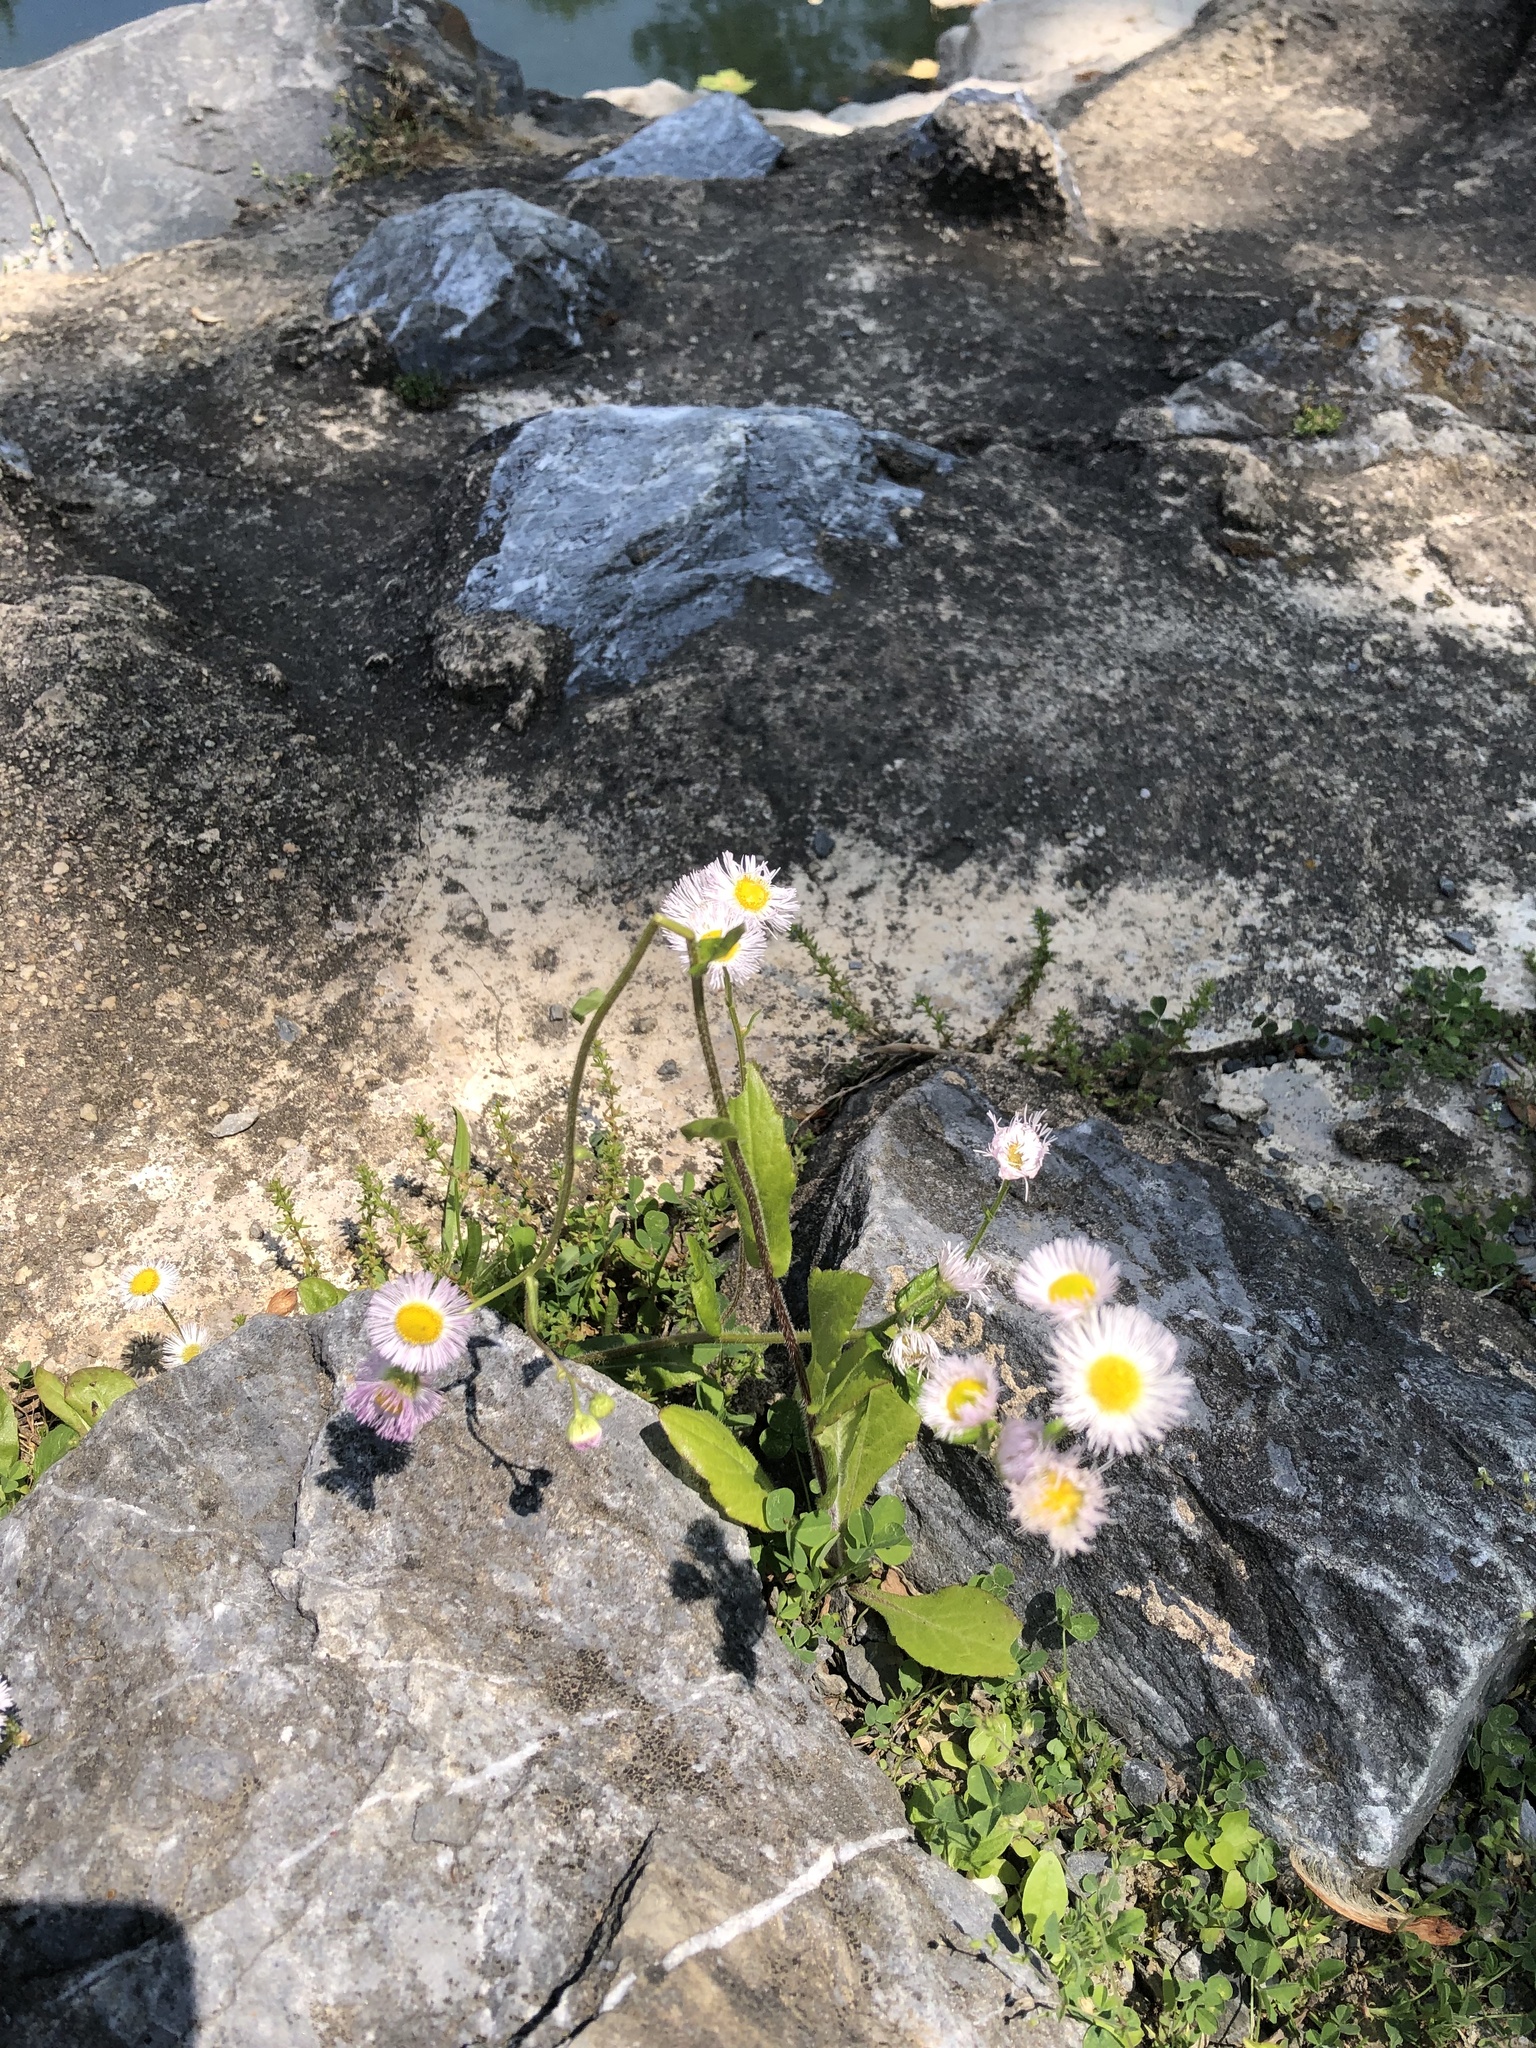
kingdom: Plantae
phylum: Tracheophyta
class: Magnoliopsida
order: Asterales
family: Asteraceae
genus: Erigeron
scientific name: Erigeron philadelphicus
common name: Robin's-plantain
